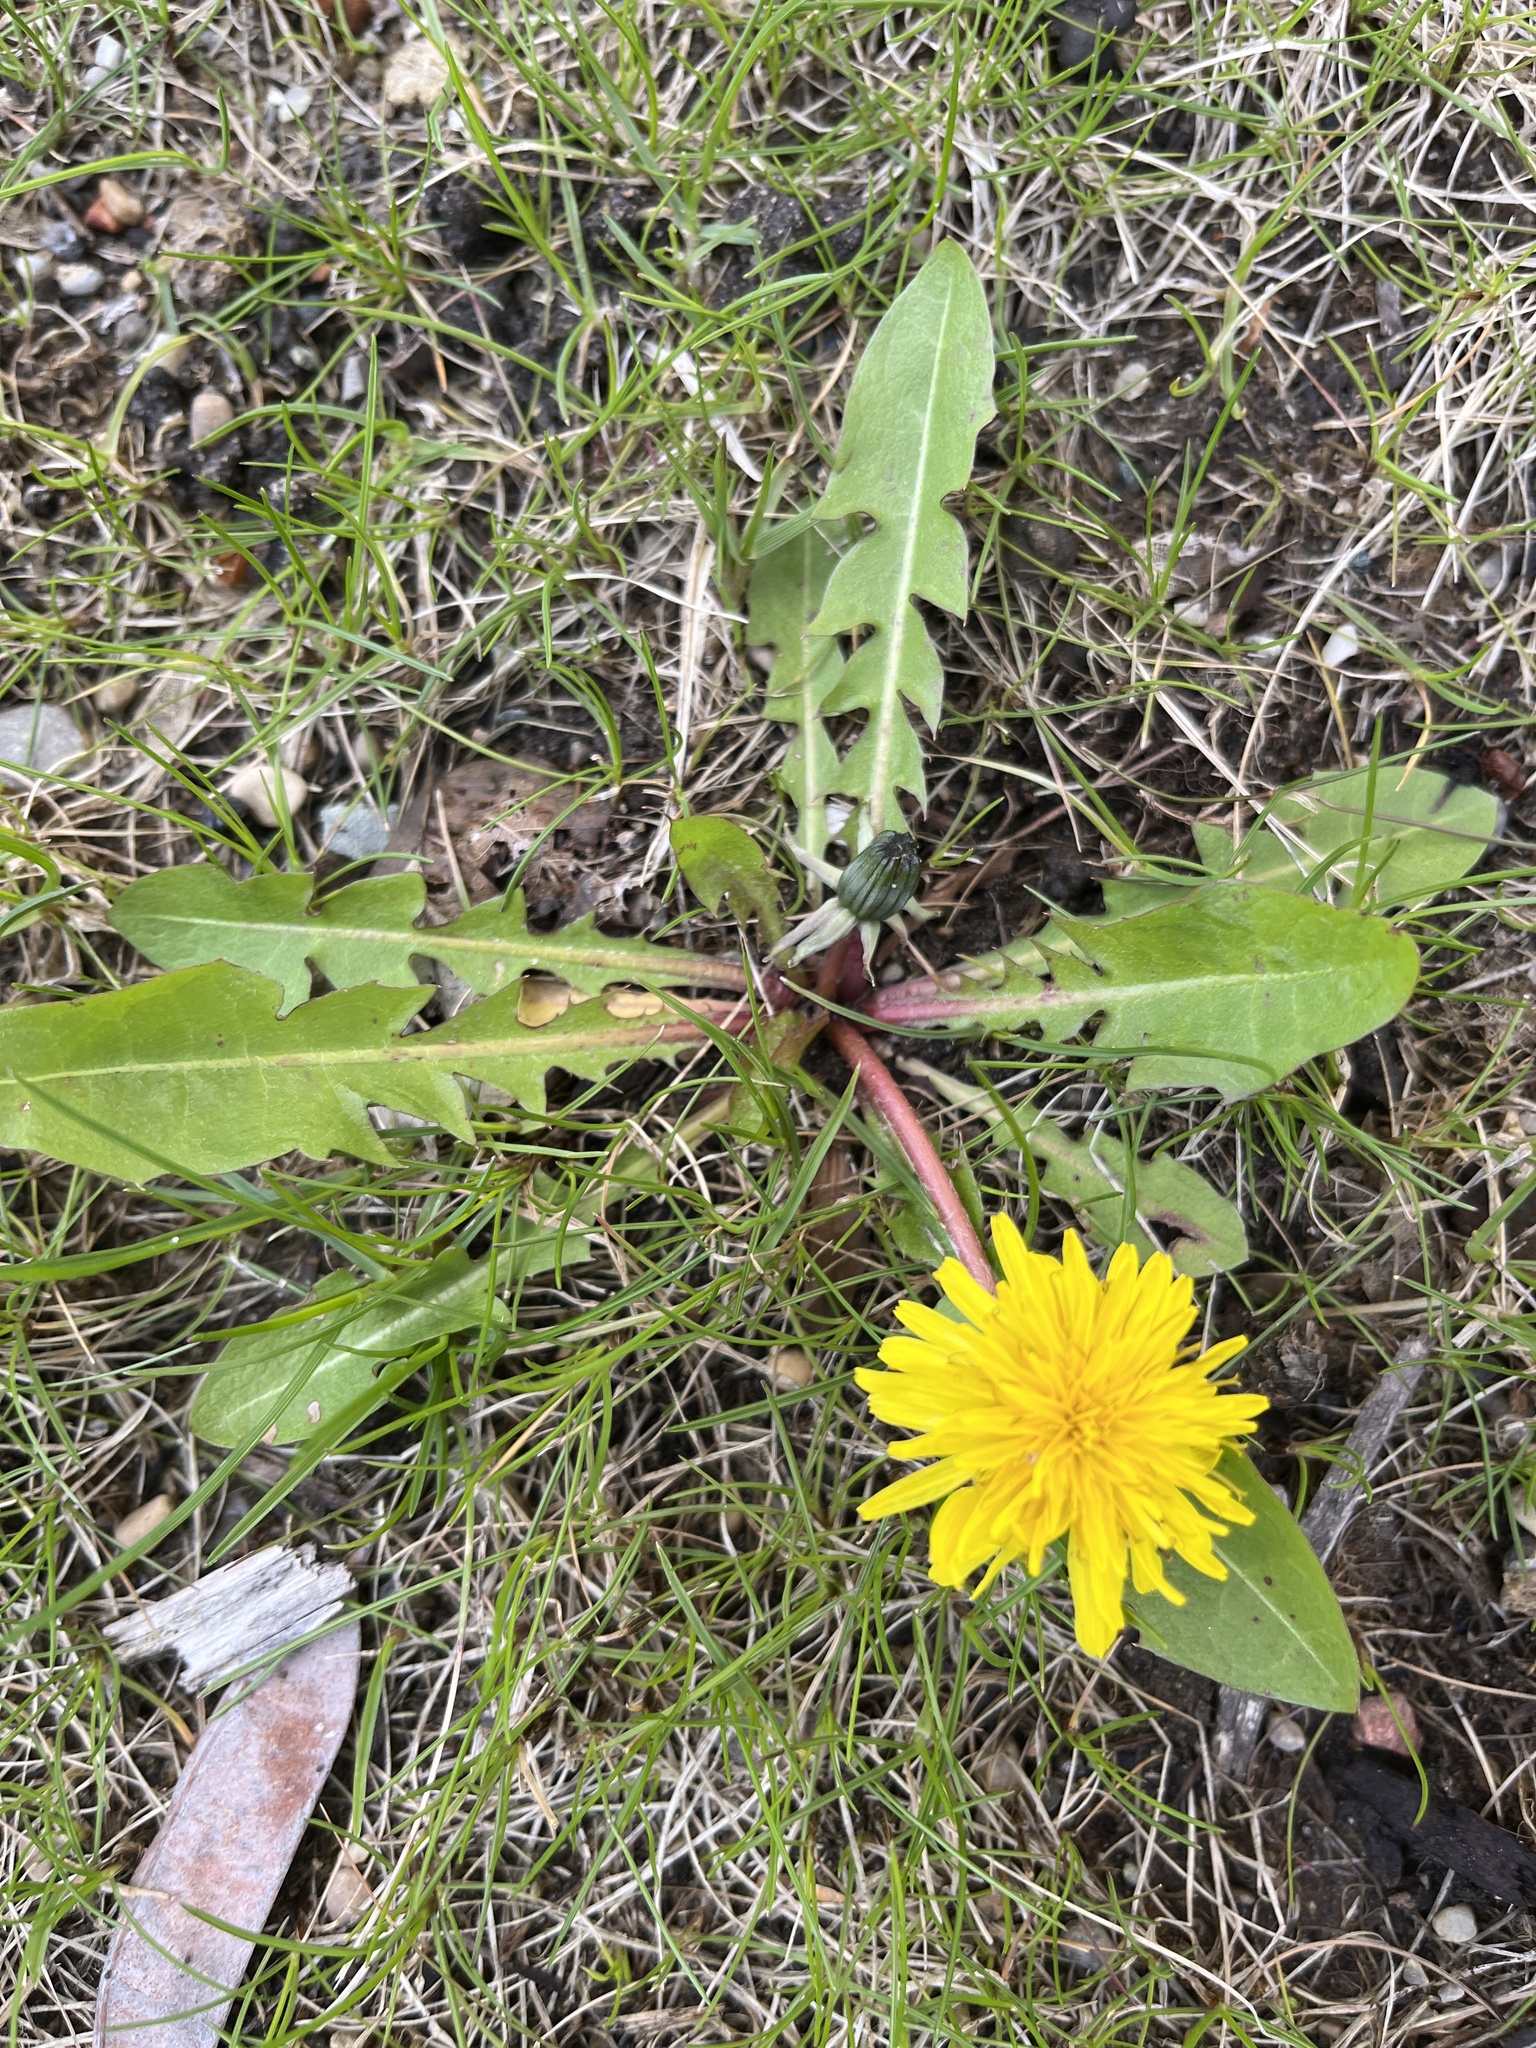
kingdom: Plantae
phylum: Tracheophyta
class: Magnoliopsida
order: Asterales
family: Asteraceae
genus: Taraxacum
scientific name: Taraxacum officinale
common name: Common dandelion
